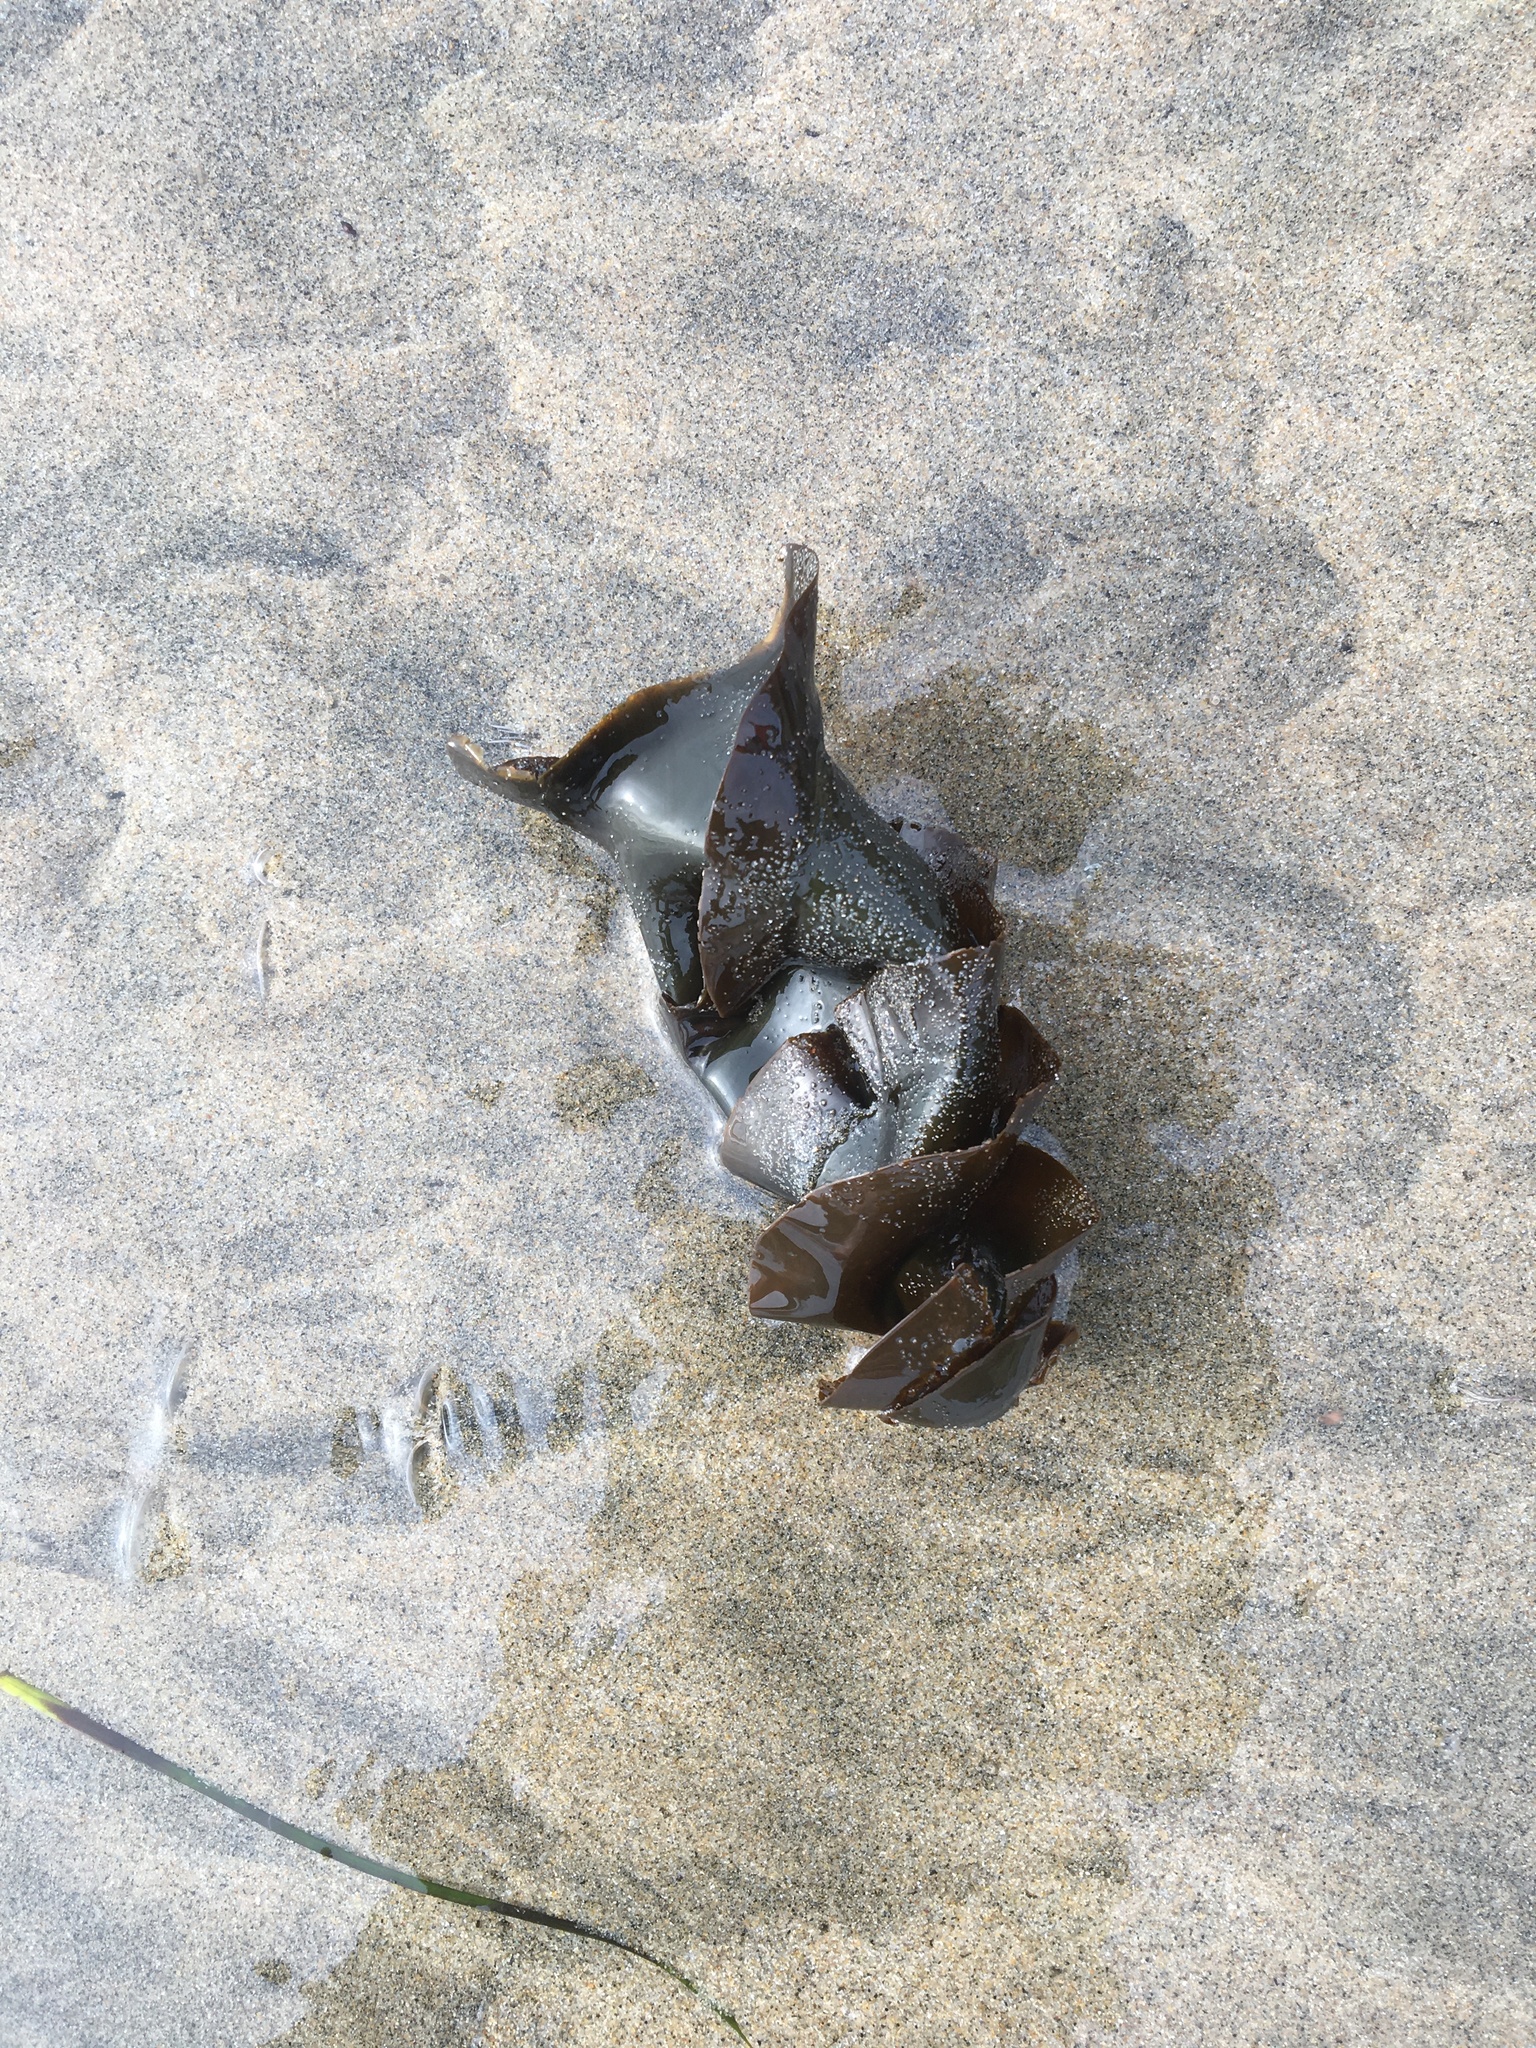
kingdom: Animalia
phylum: Chordata
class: Elasmobranchii
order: Heterodontiformes
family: Heterodontidae
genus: Heterodontus
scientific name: Heterodontus francisci
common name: Horn shark
